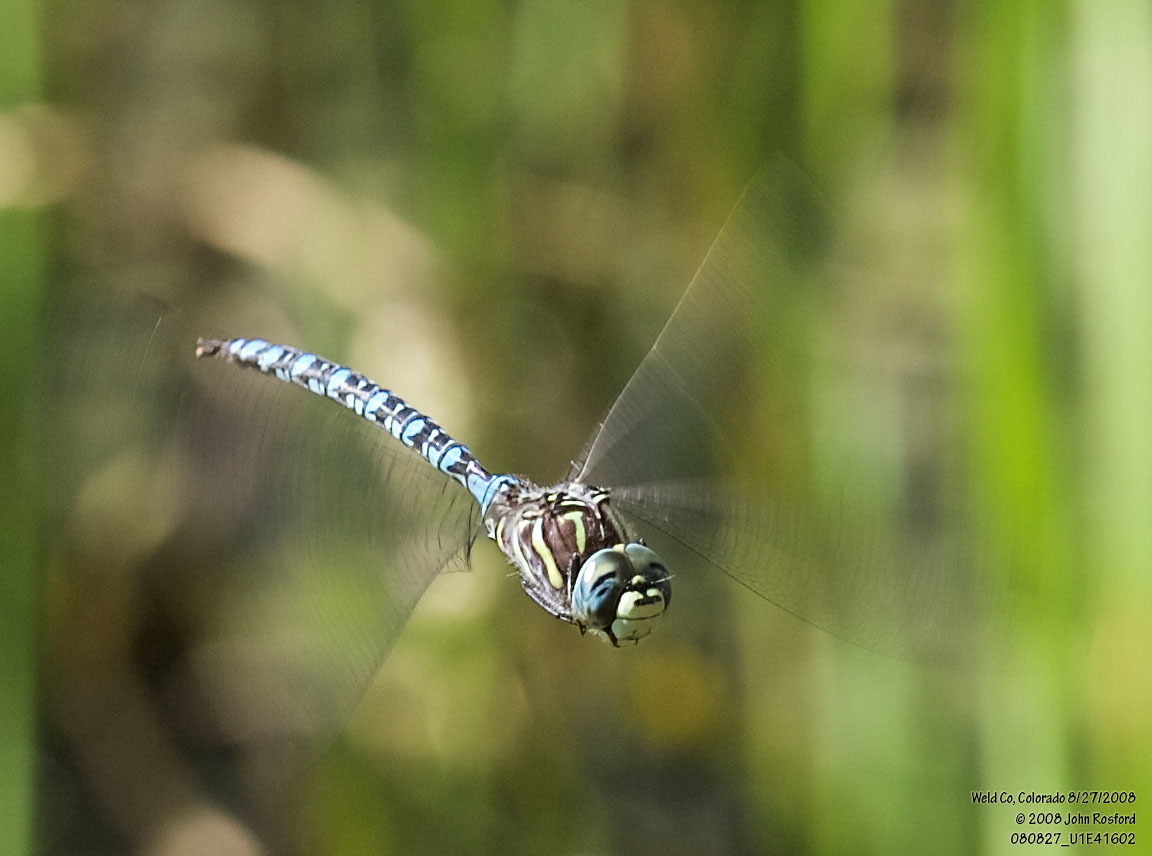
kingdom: Animalia
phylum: Arthropoda
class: Insecta
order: Odonata
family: Aeshnidae
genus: Aeshna
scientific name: Aeshna palmata
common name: Paddle-tailed darner
